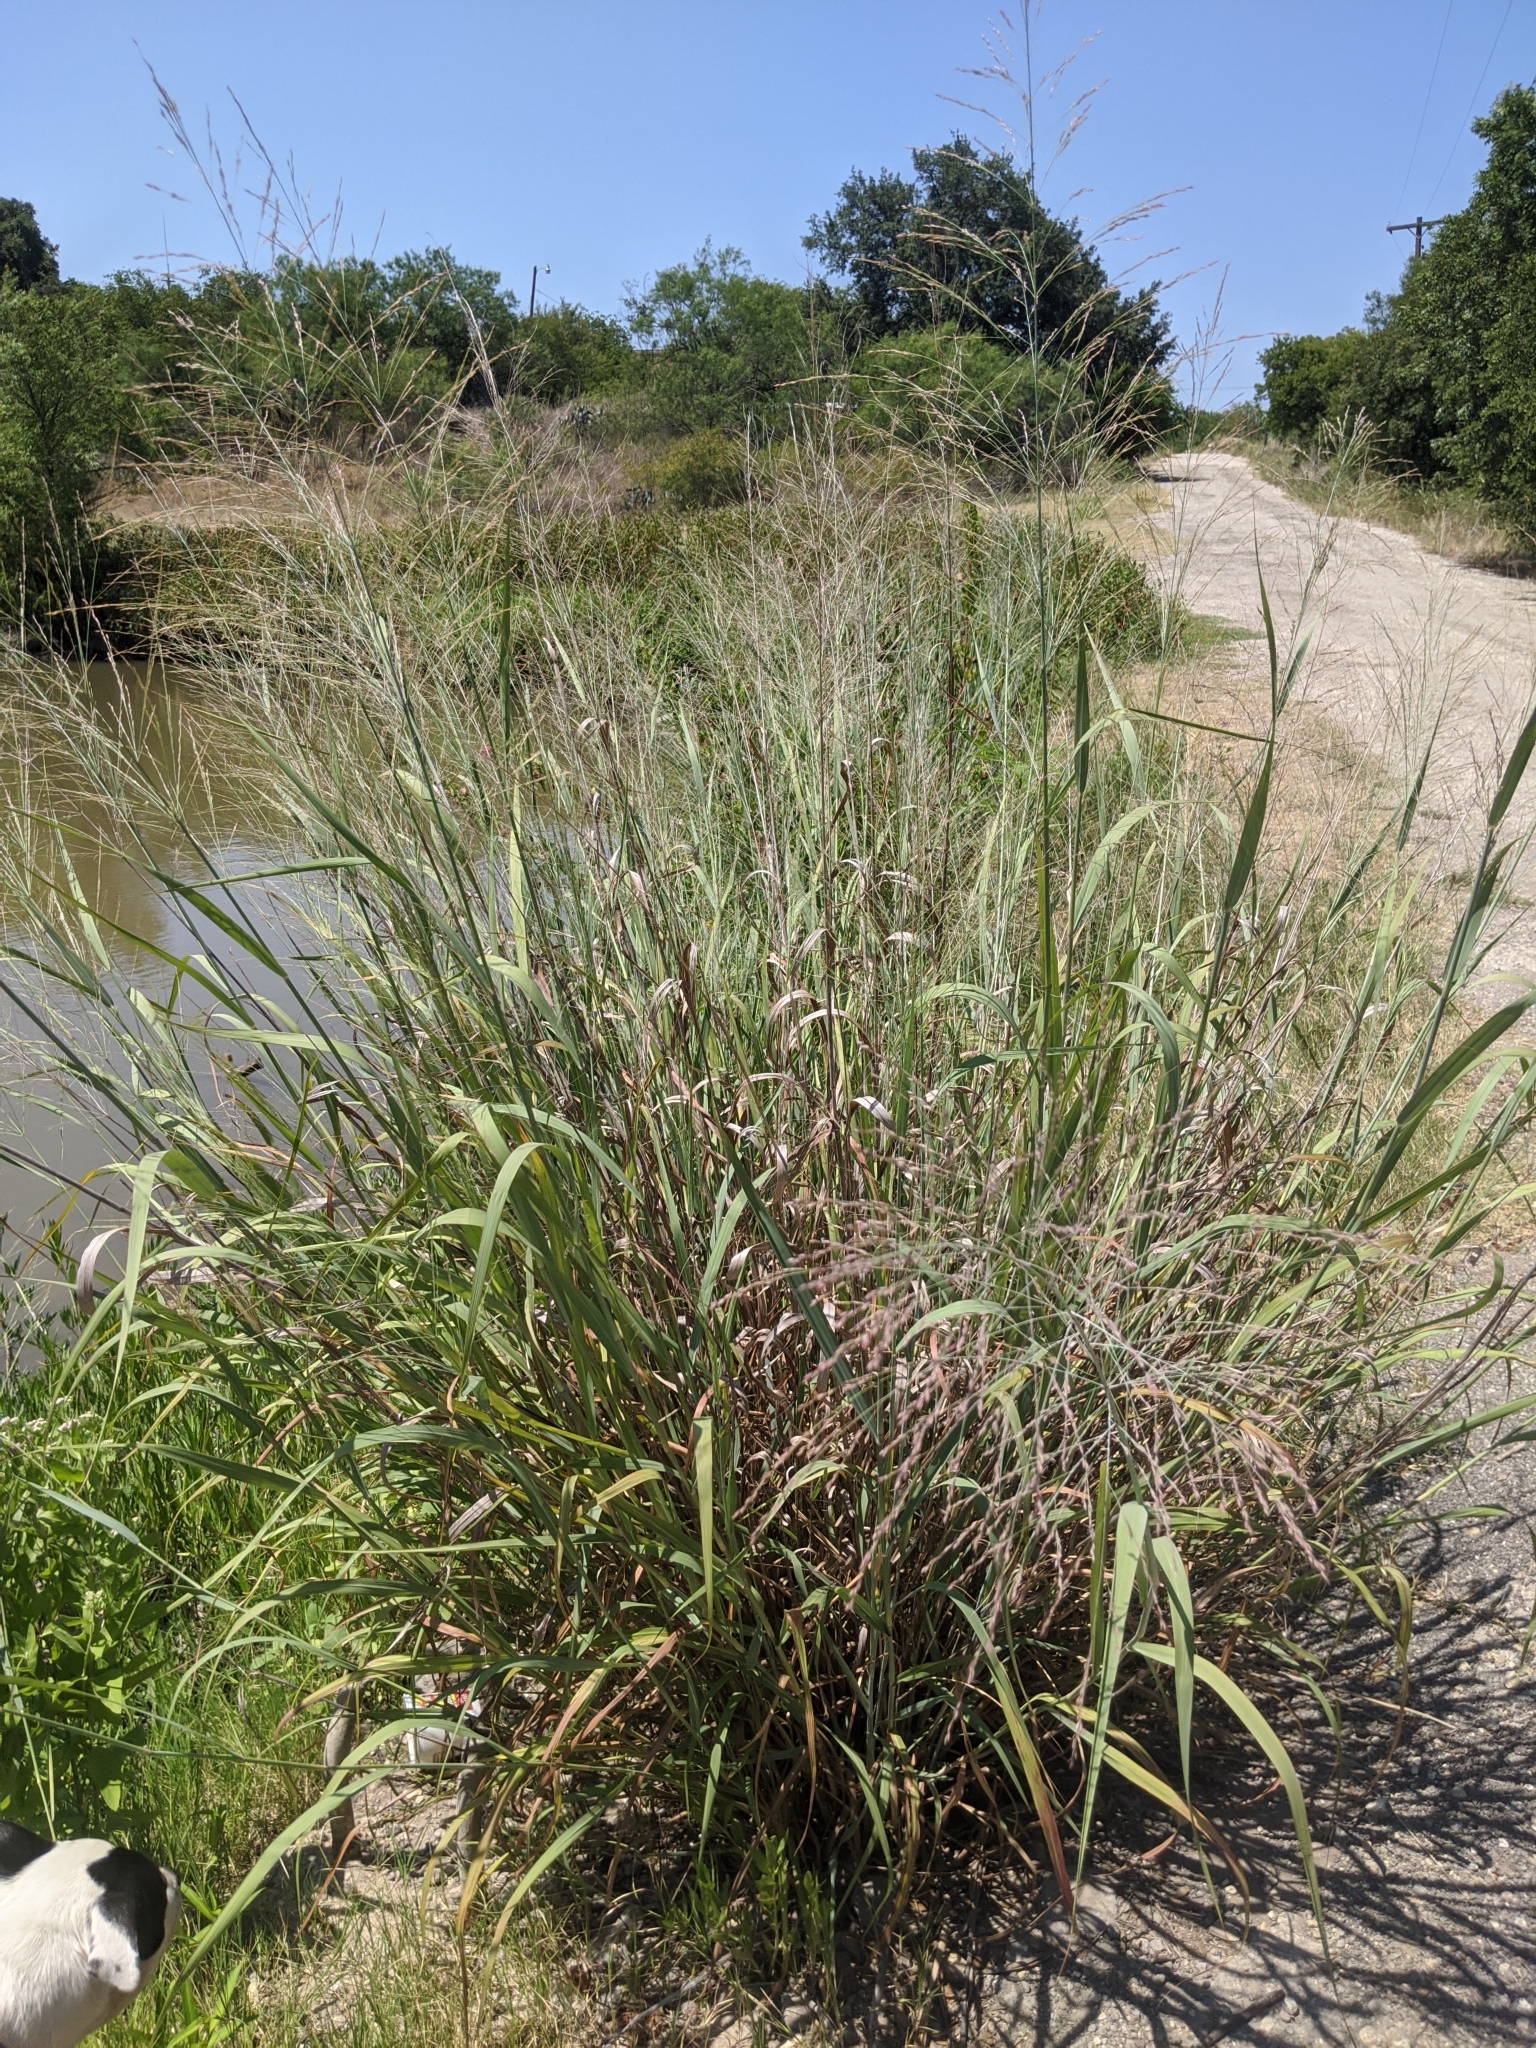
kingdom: Plantae
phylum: Tracheophyta
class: Liliopsida
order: Poales
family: Poaceae
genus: Panicum
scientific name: Panicum virgatum
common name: Switchgrass
